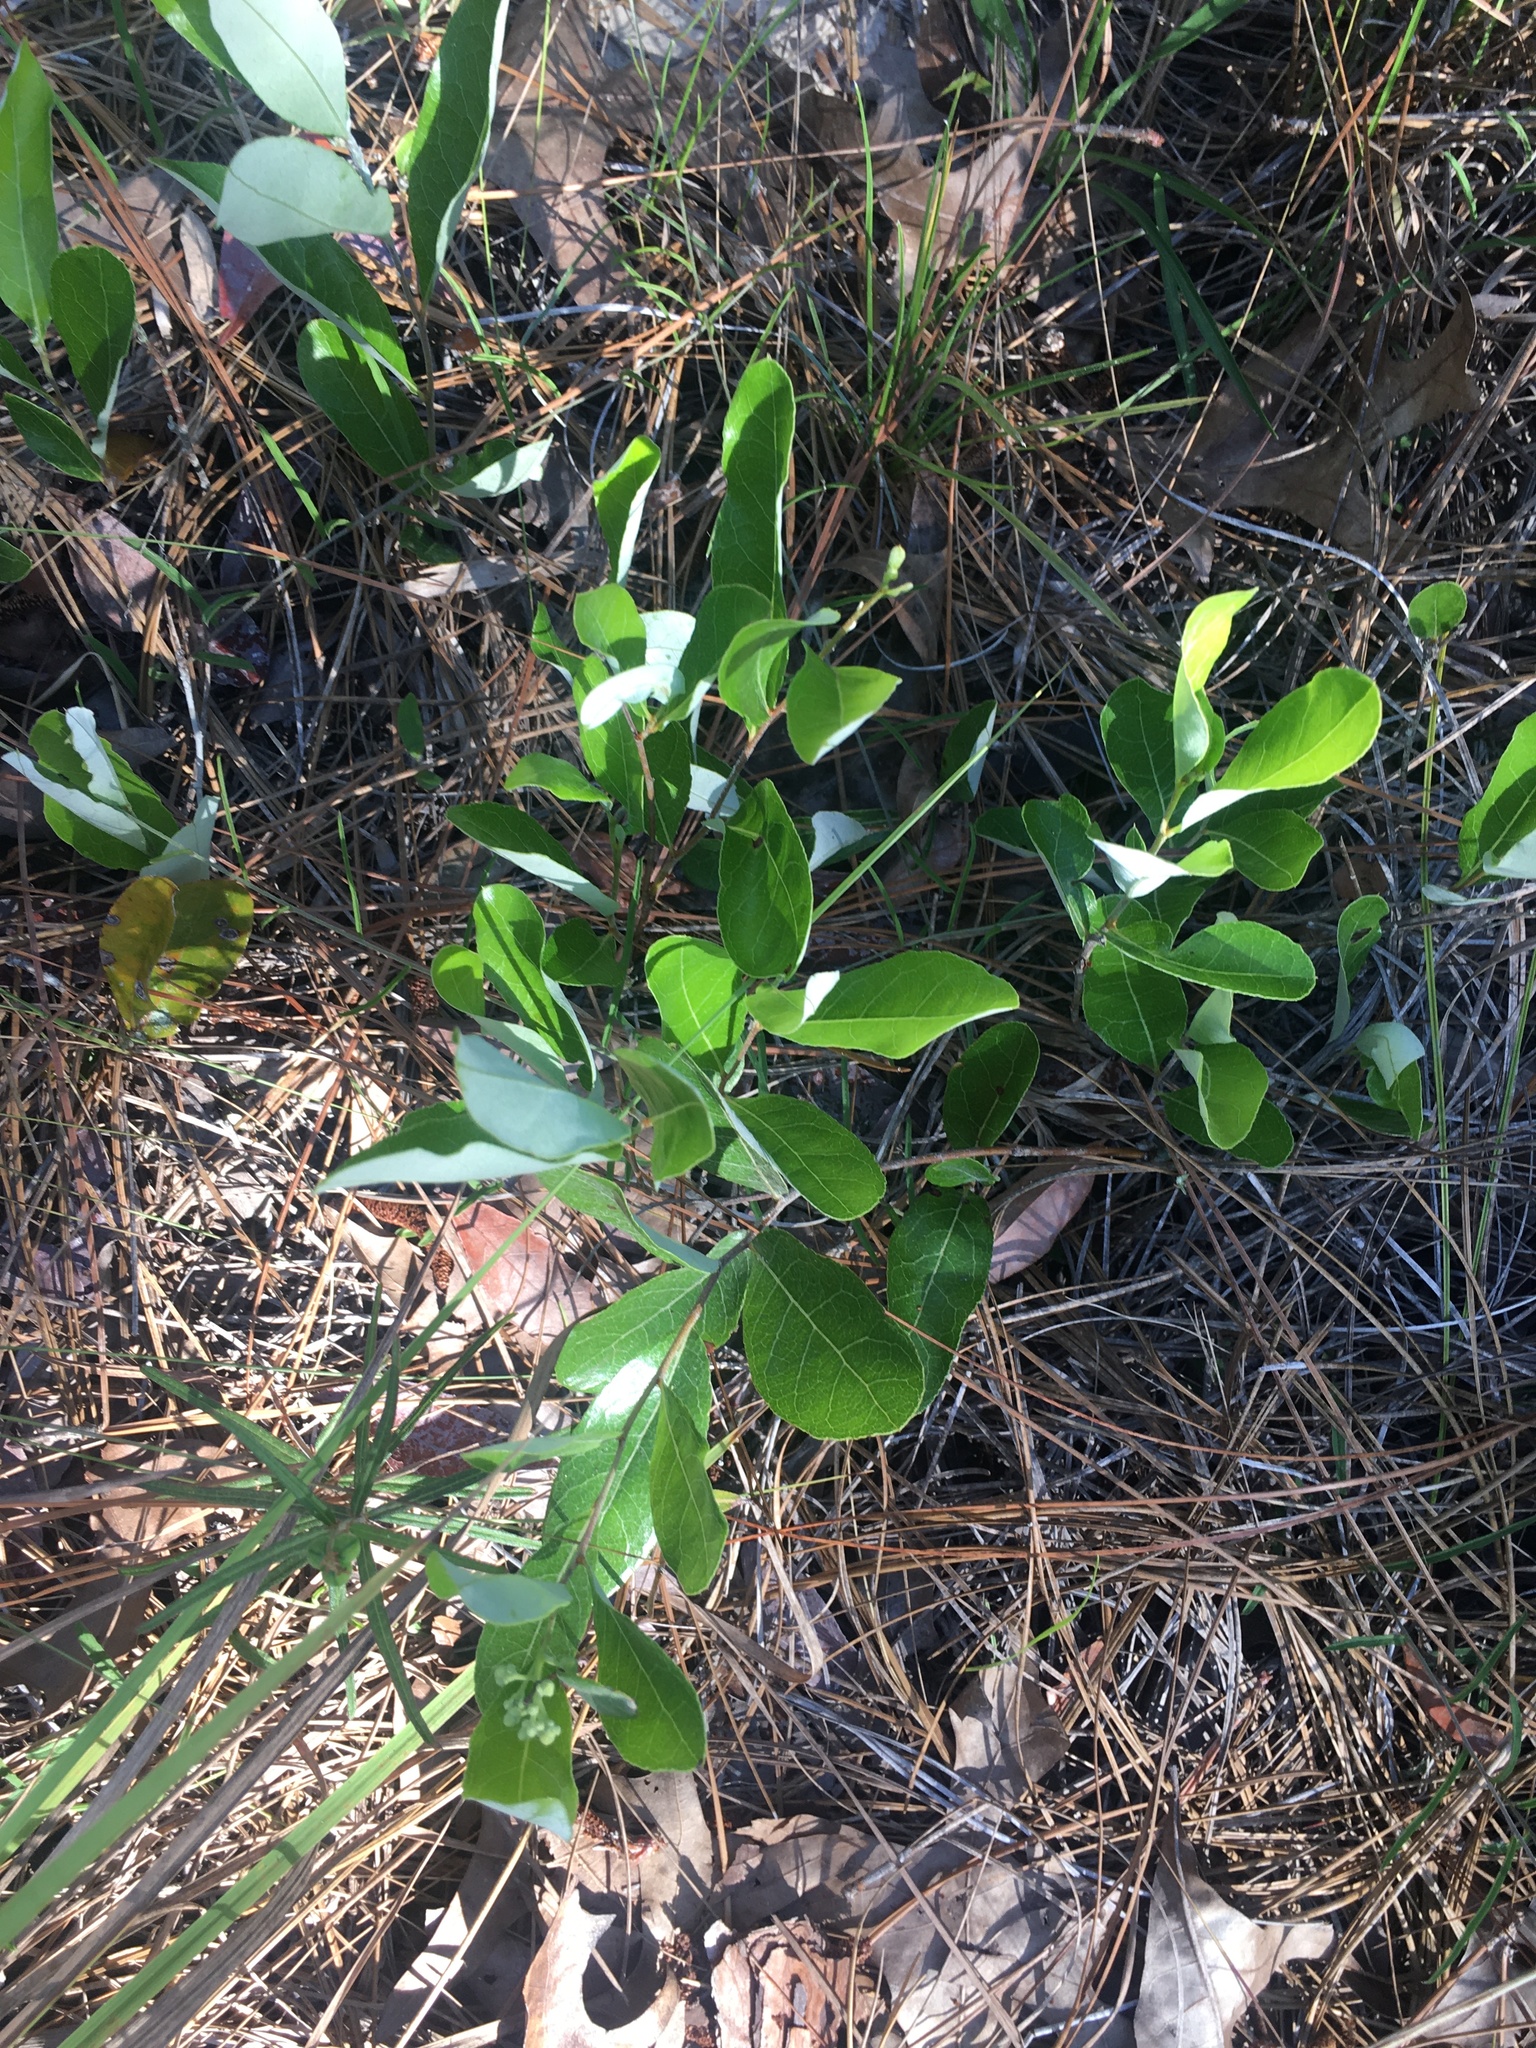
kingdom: Plantae
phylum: Tracheophyta
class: Magnoliopsida
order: Malpighiales
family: Chrysobalanaceae
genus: Geobalanus
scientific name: Geobalanus oblongifolius
